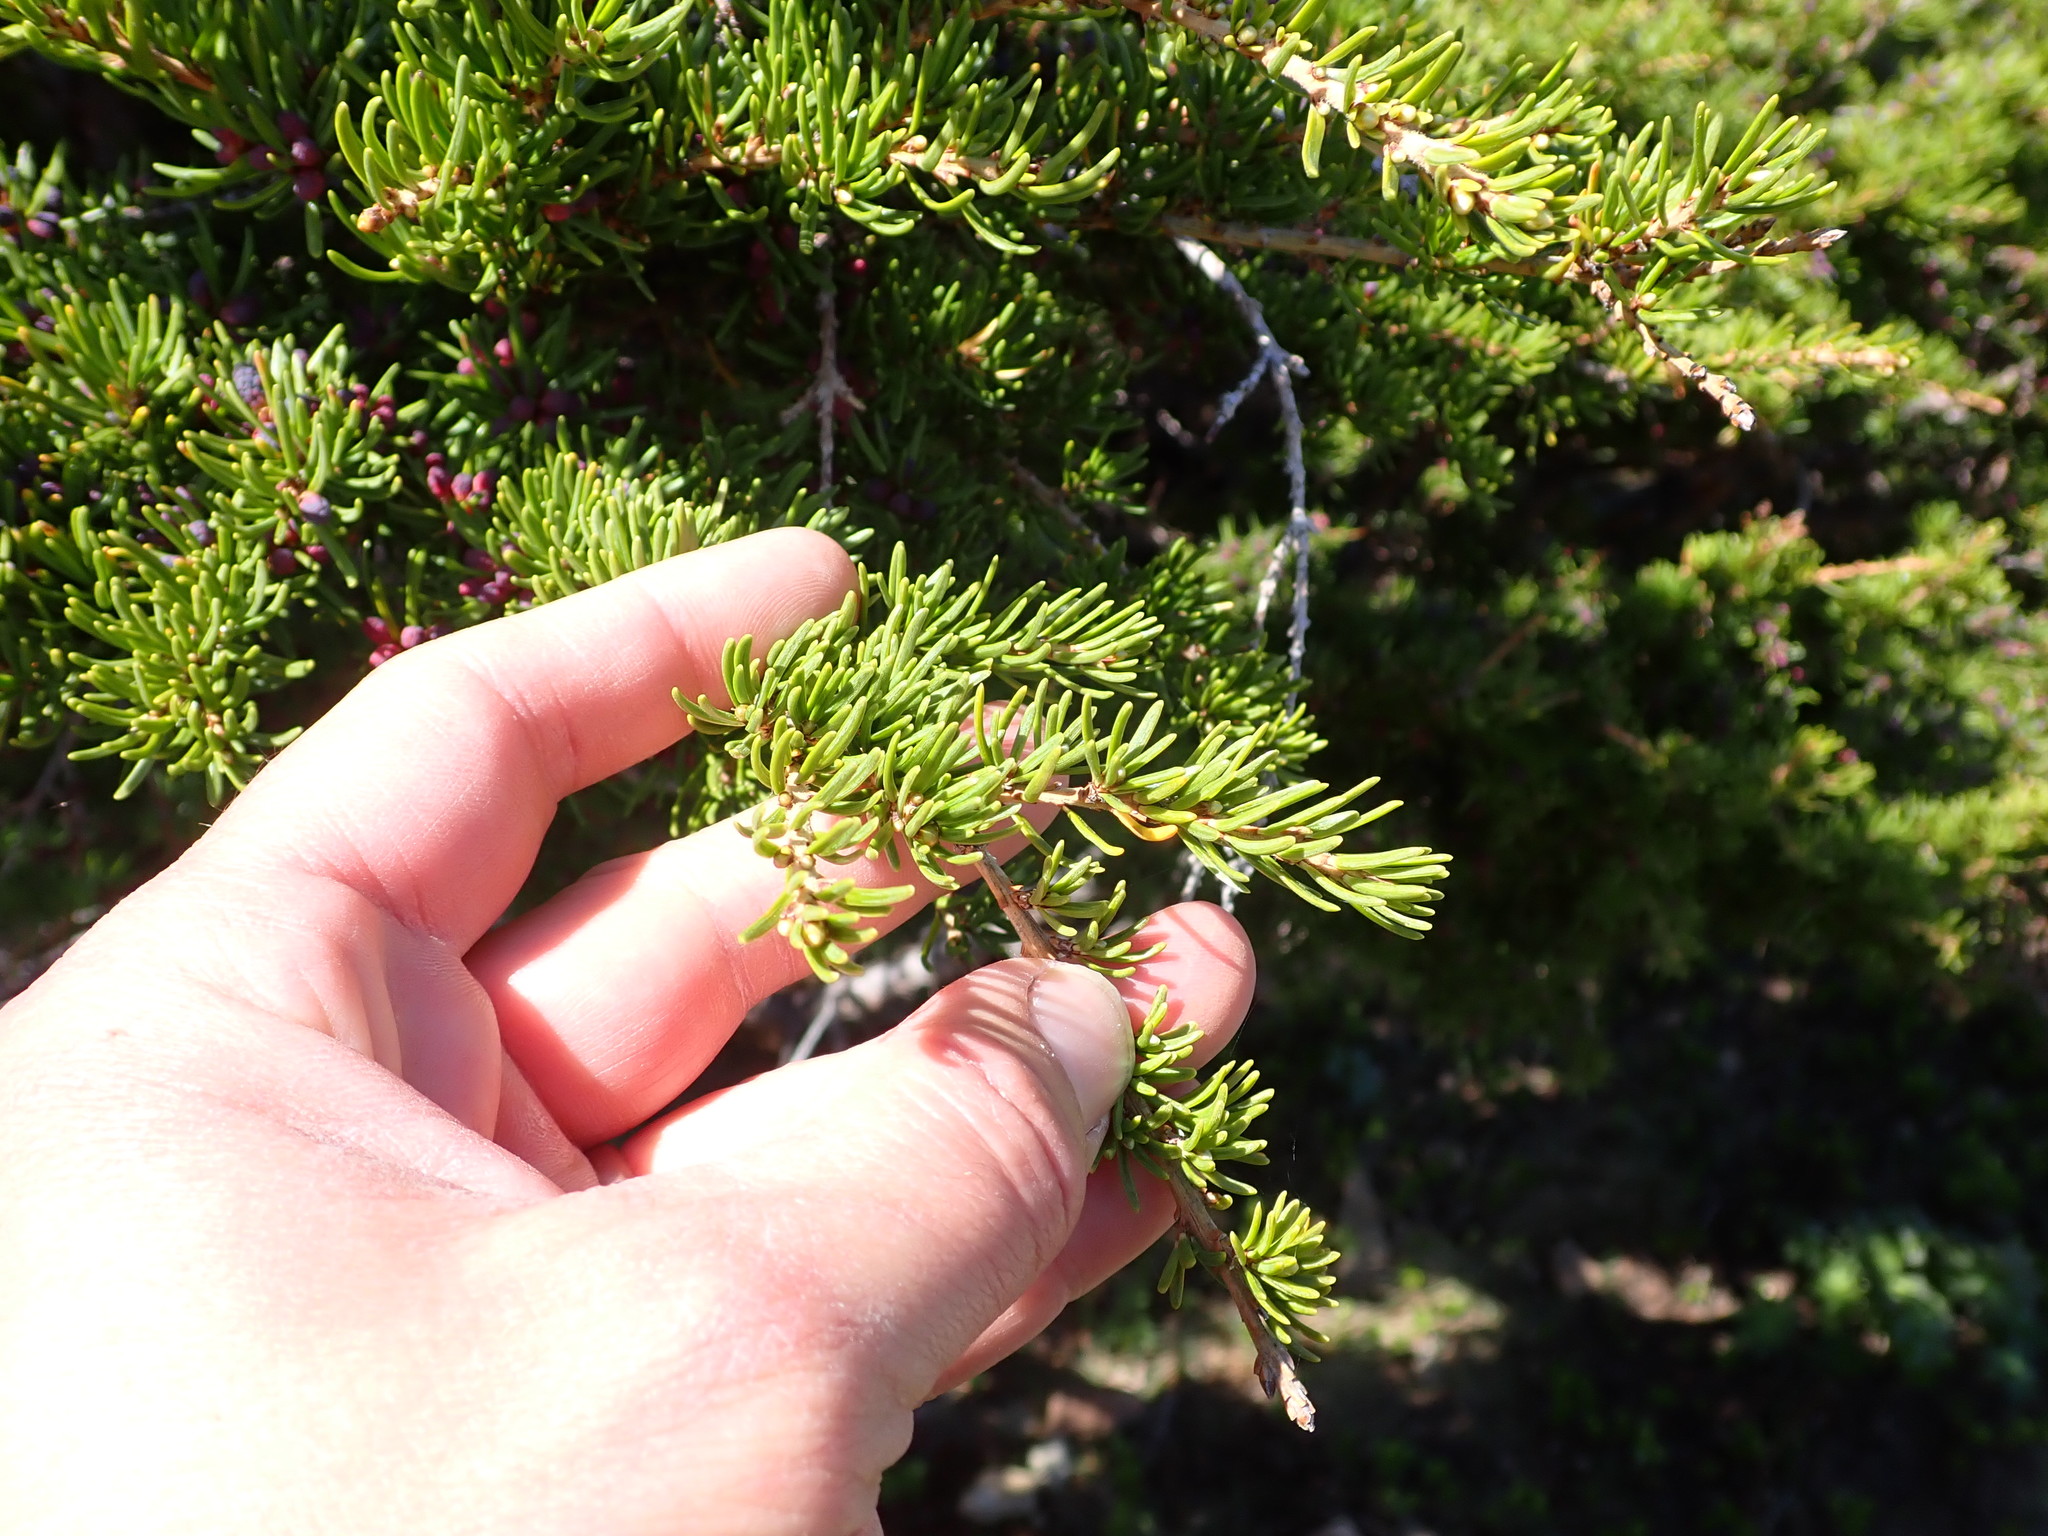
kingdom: Plantae
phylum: Tracheophyta
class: Pinopsida
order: Pinales
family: Pinaceae
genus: Tsuga
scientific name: Tsuga mertensiana
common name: Mountain hemlock
